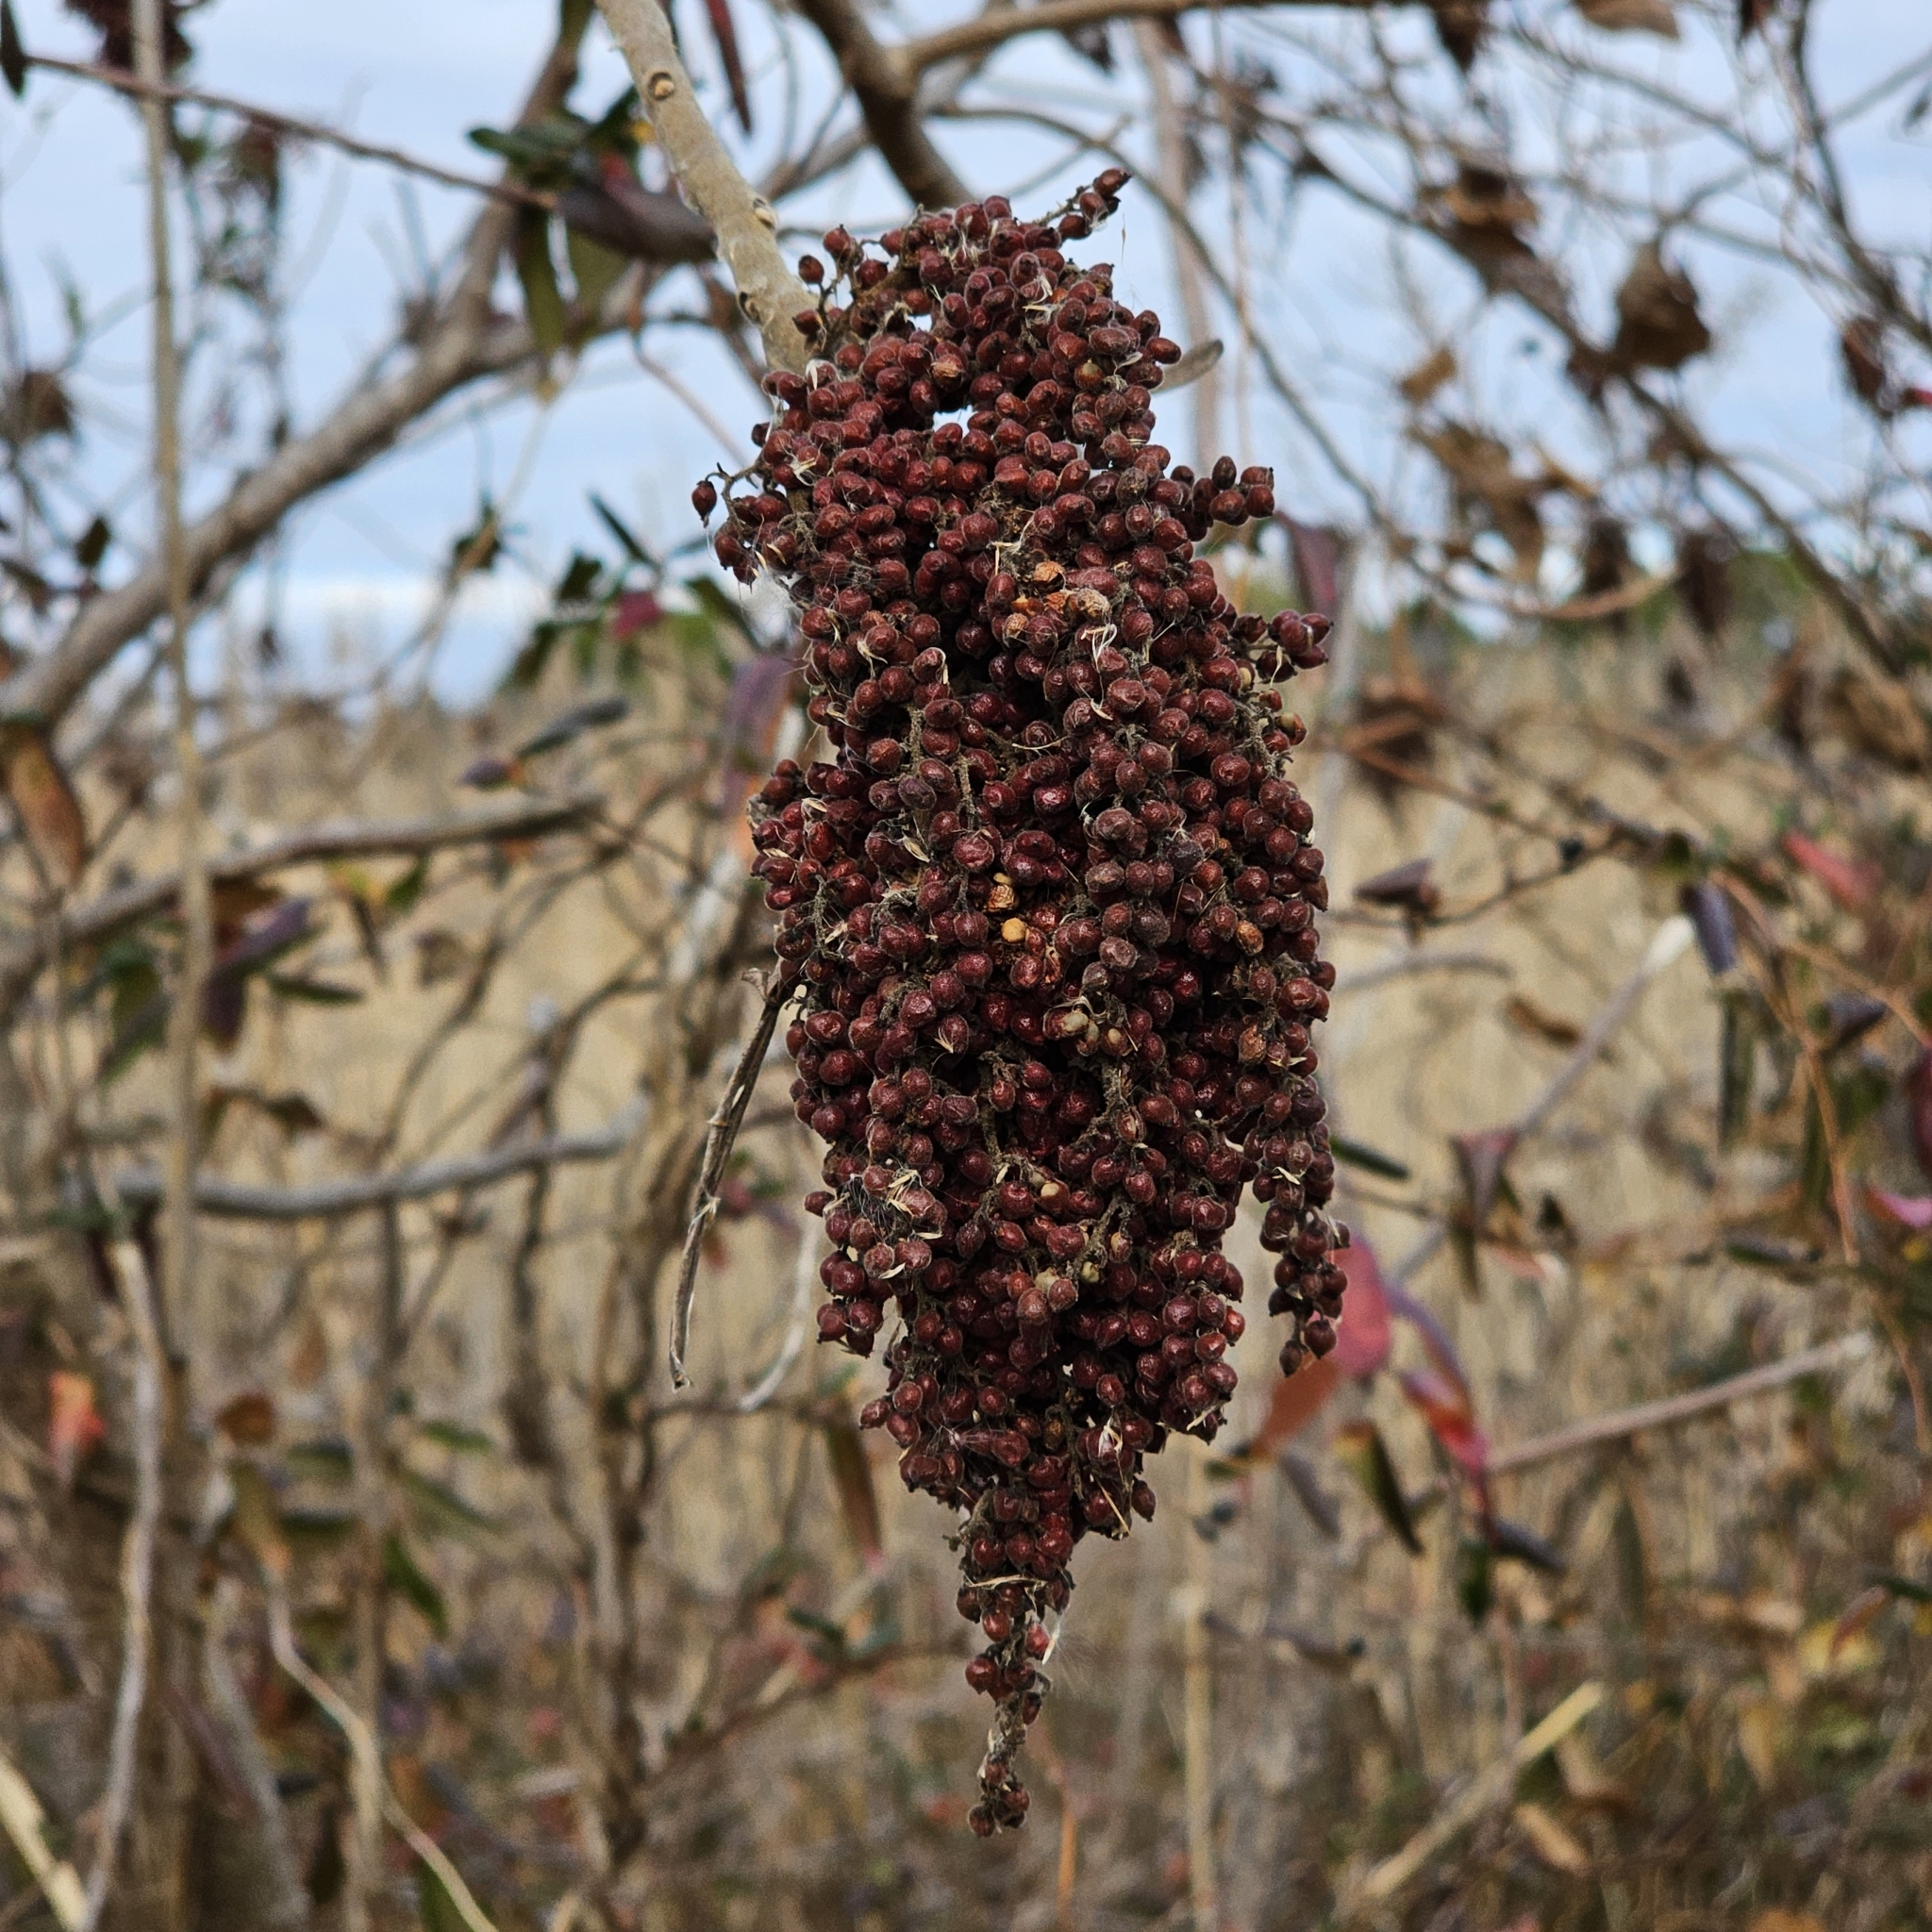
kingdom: Plantae
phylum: Tracheophyta
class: Magnoliopsida
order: Sapindales
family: Anacardiaceae
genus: Rhus
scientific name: Rhus copallina
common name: Shining sumac
